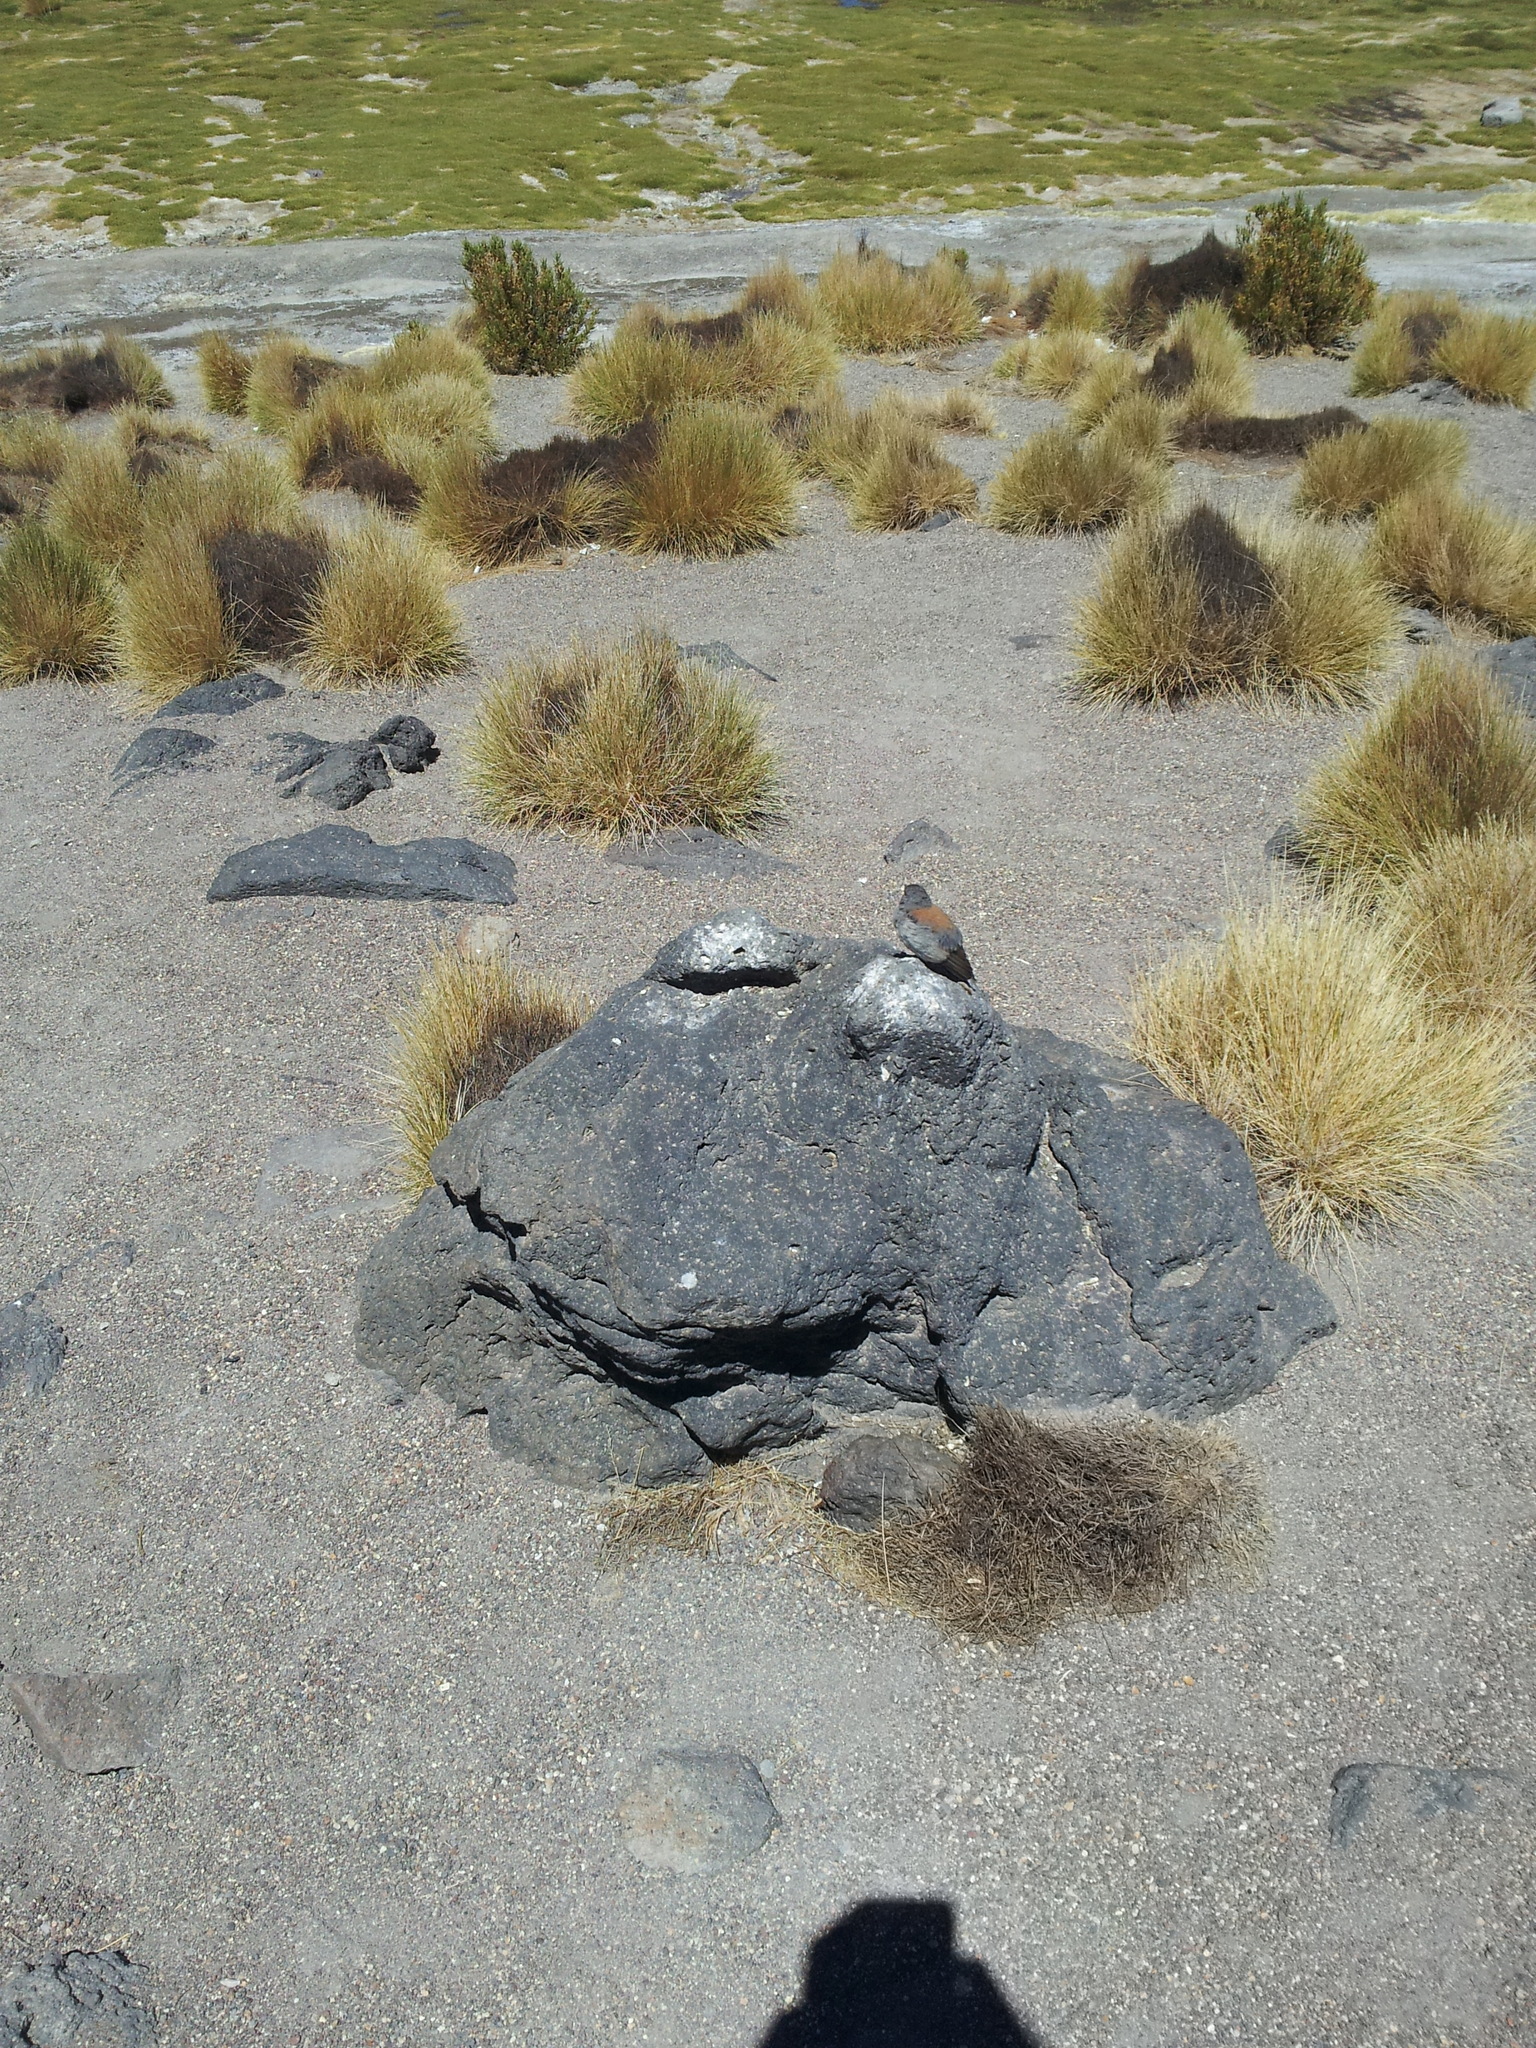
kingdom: Animalia
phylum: Chordata
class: Aves
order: Passeriformes
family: Thraupidae
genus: Idiopsar
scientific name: Idiopsar dorsalis
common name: Red-backed sierra finch
